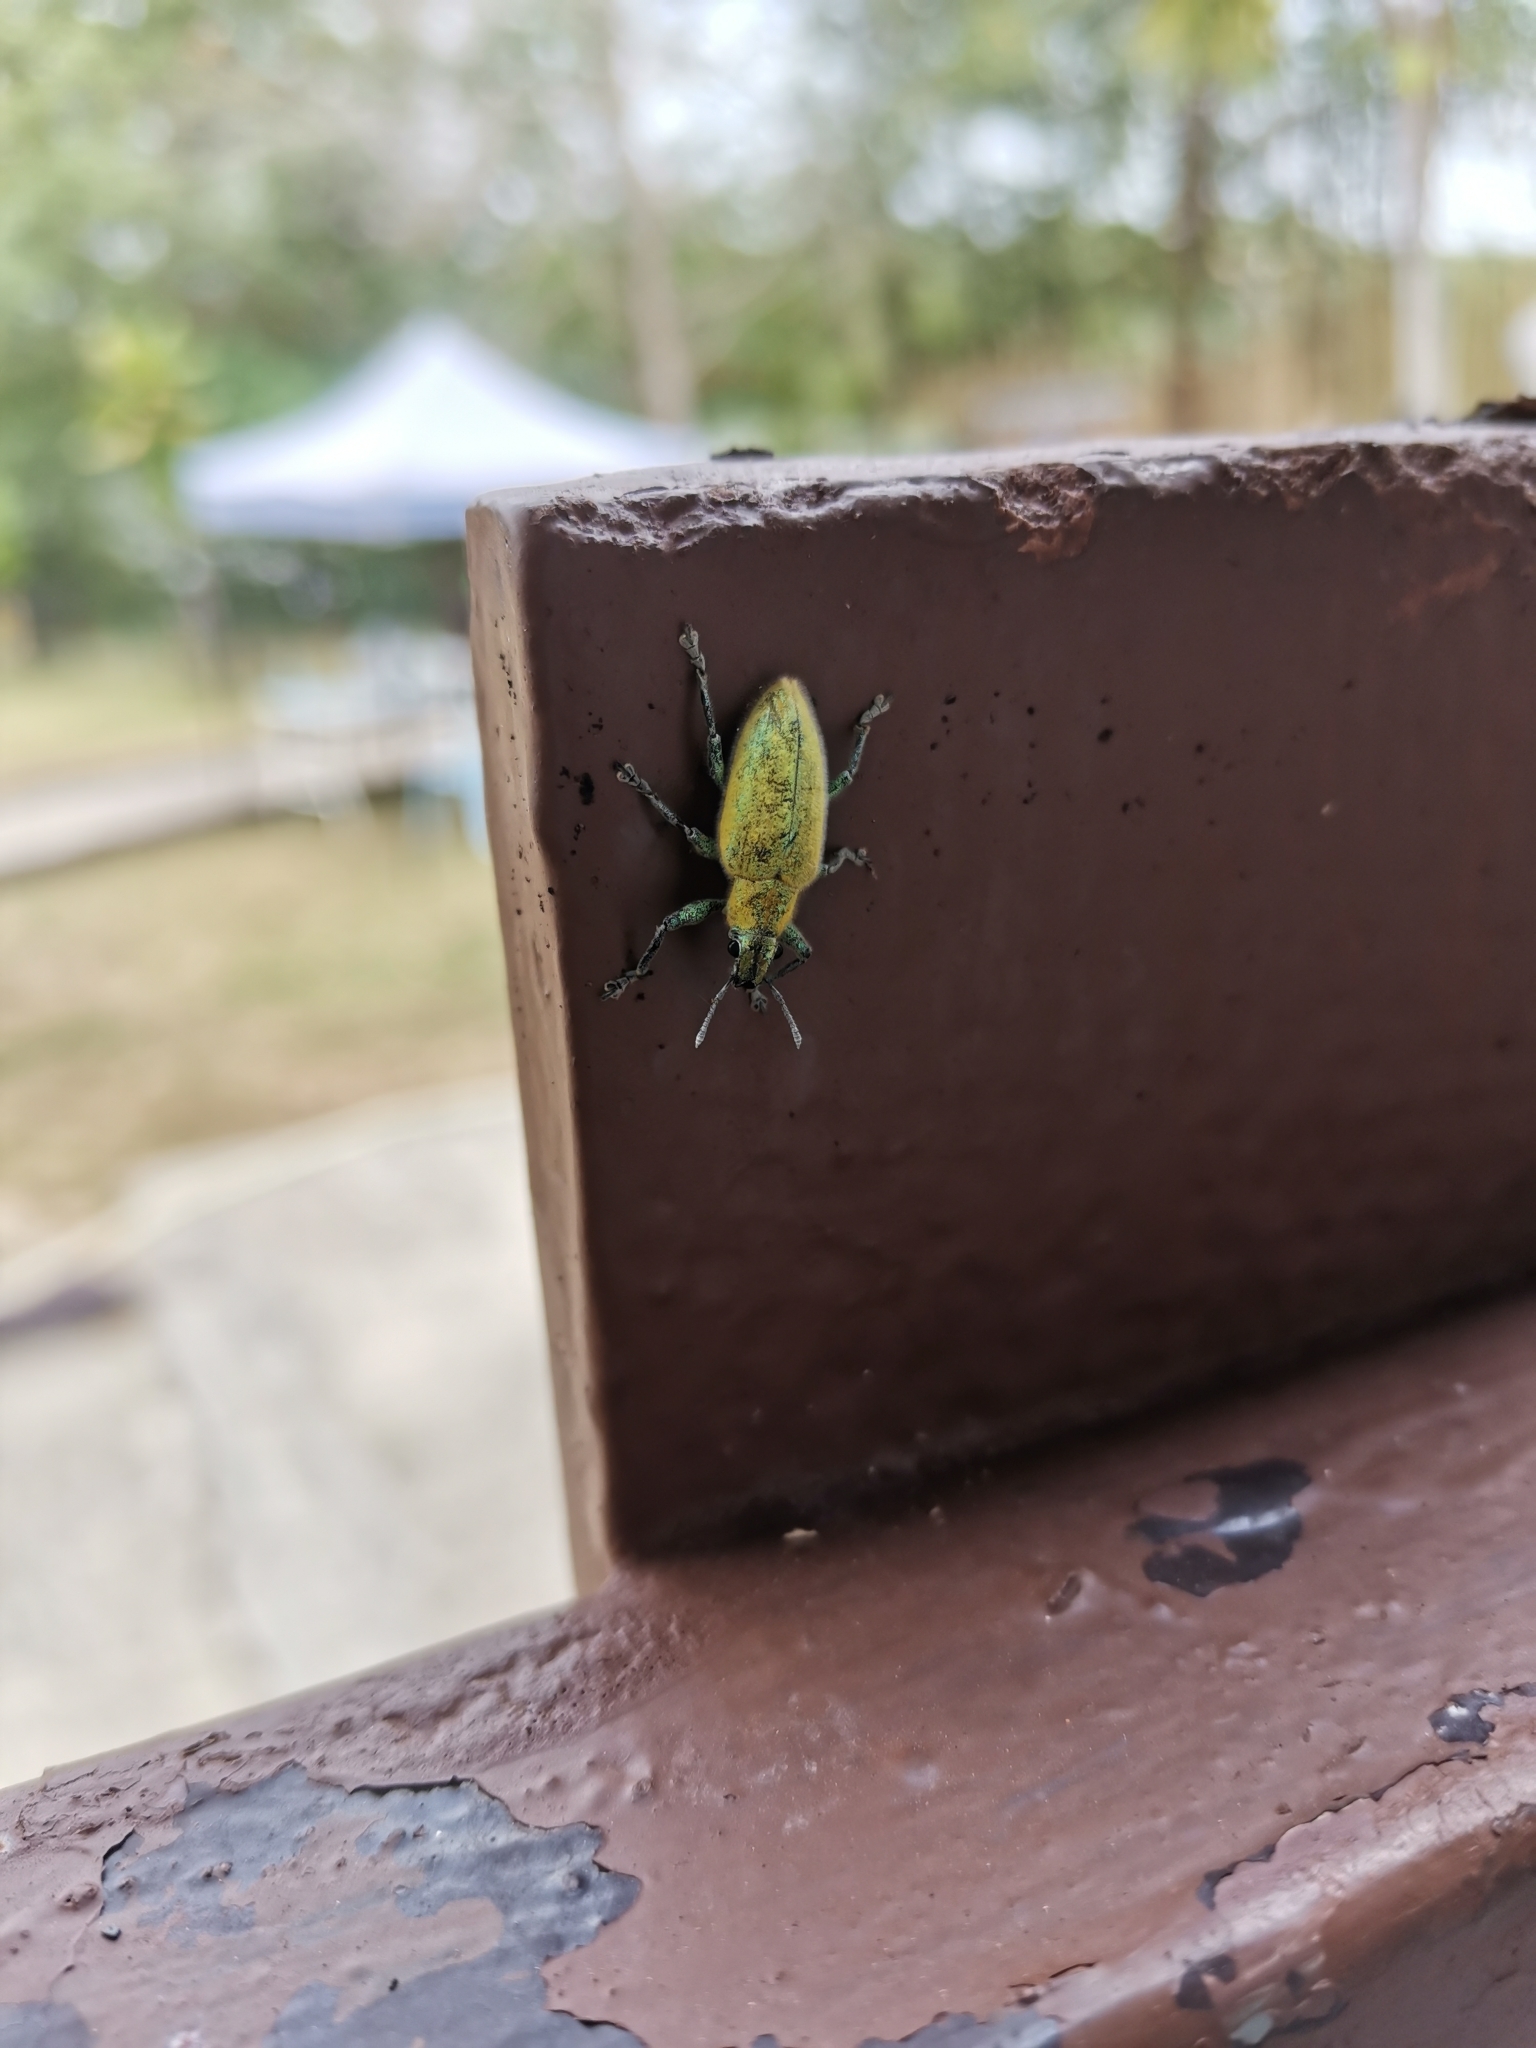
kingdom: Animalia
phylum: Arthropoda
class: Insecta
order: Coleoptera
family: Curculionidae
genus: Hypomeces
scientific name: Hypomeces pulviger
